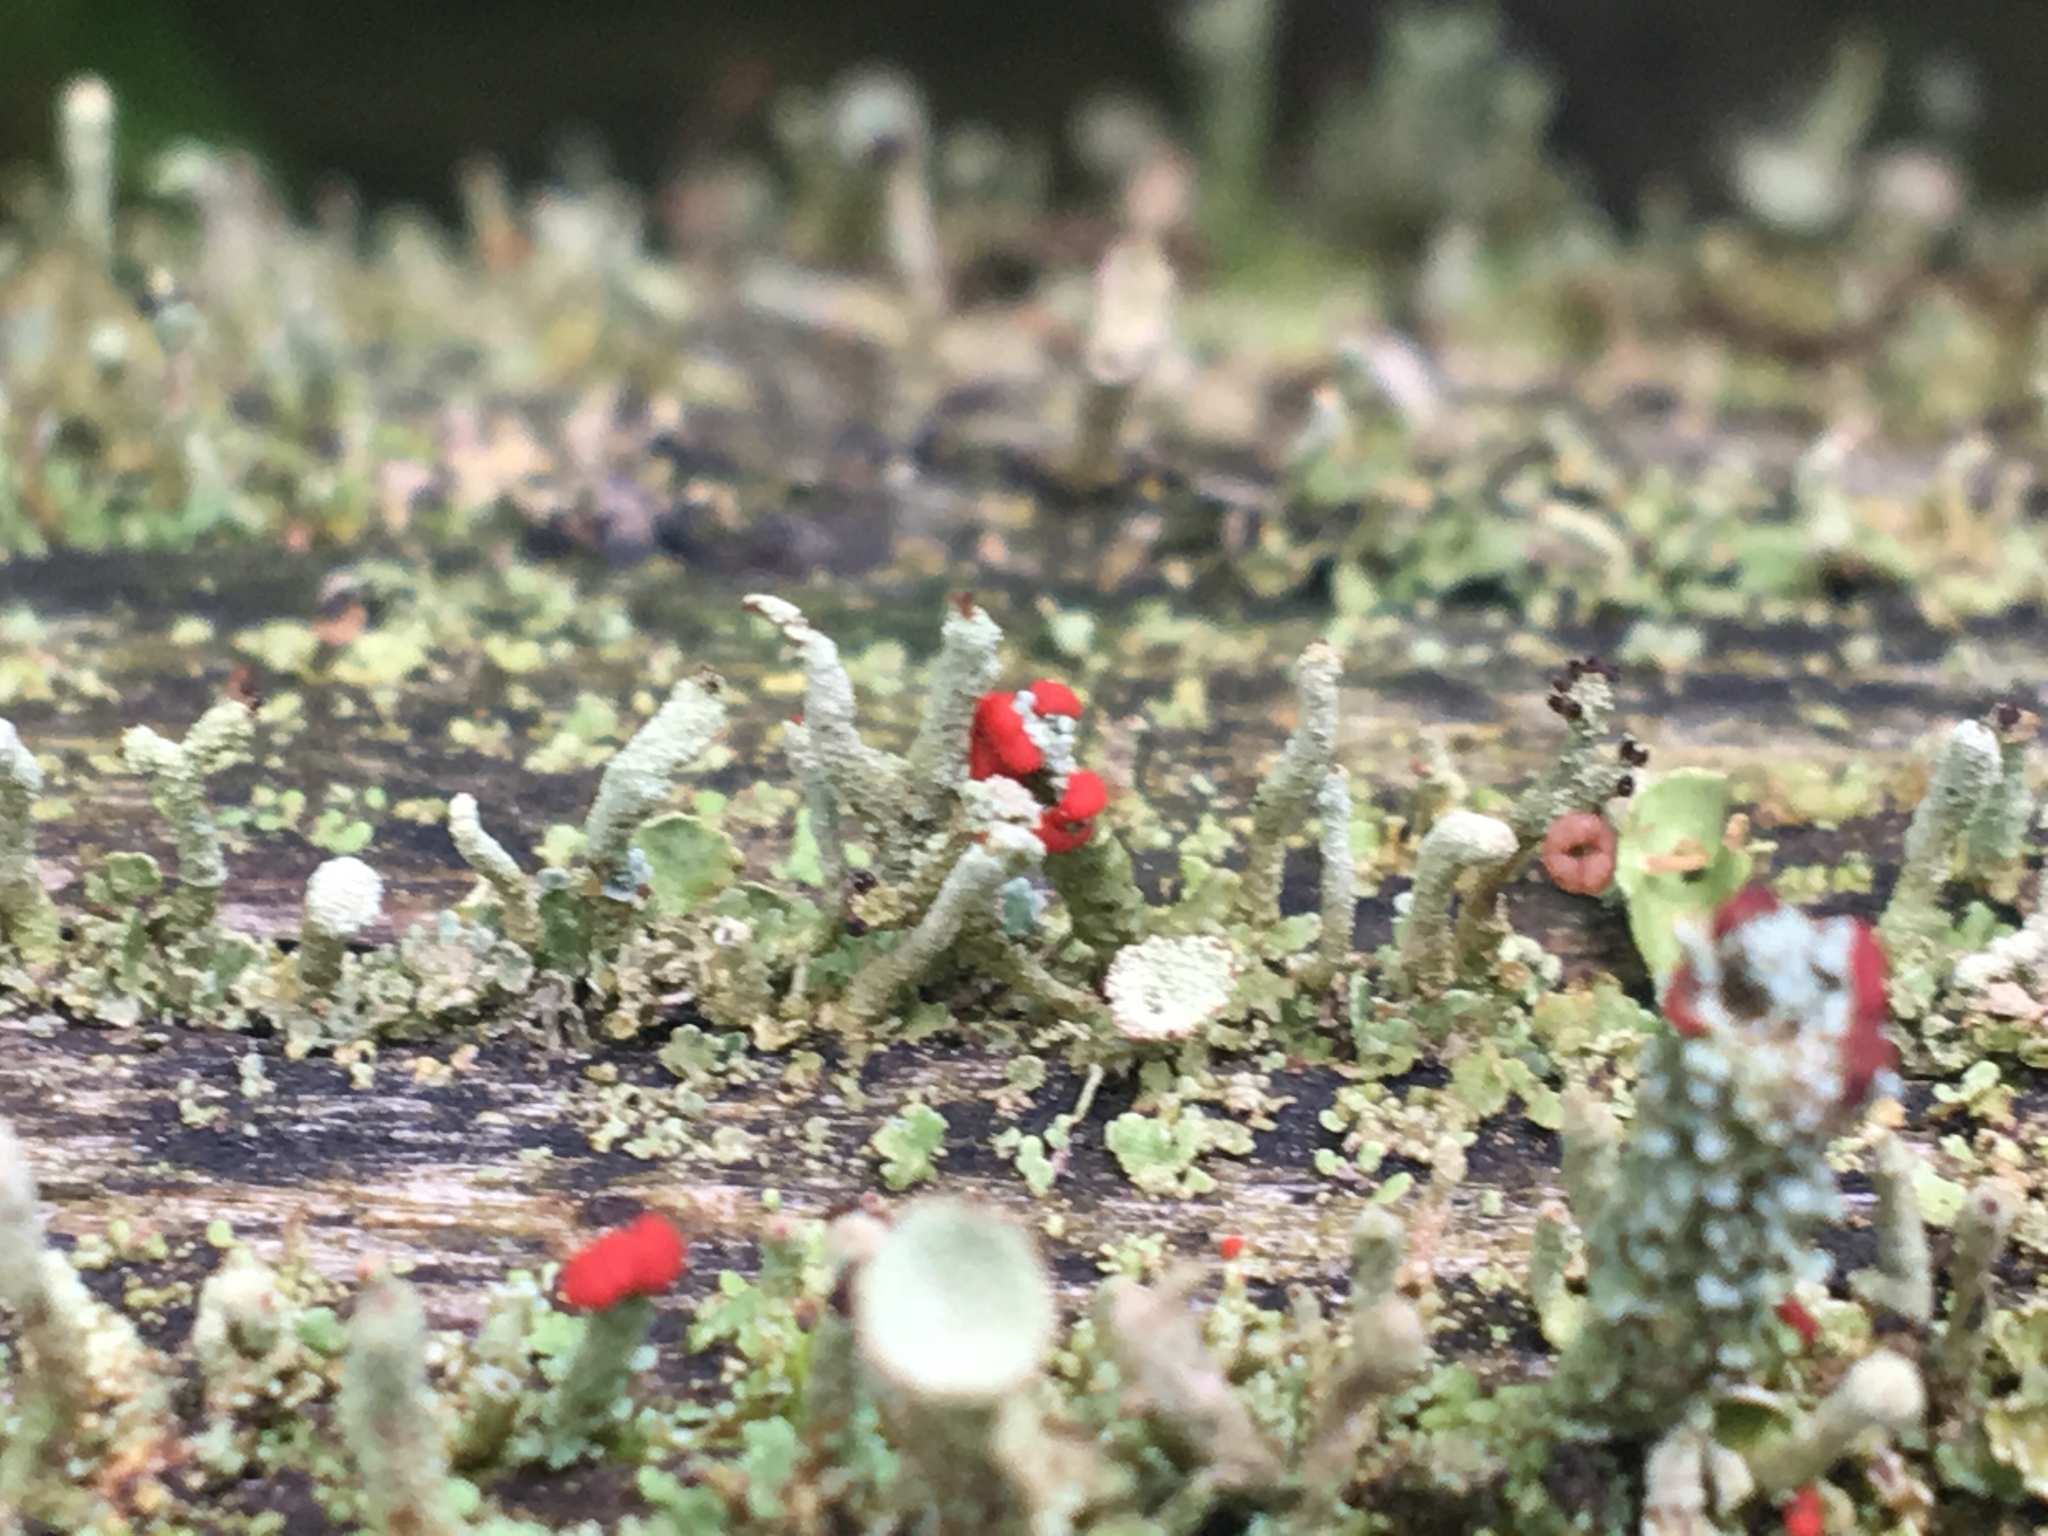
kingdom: Fungi
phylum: Ascomycota
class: Lecanoromycetes
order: Lecanorales
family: Cladoniaceae
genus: Cladonia
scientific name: Cladonia cristatella
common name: British soldier lichen
